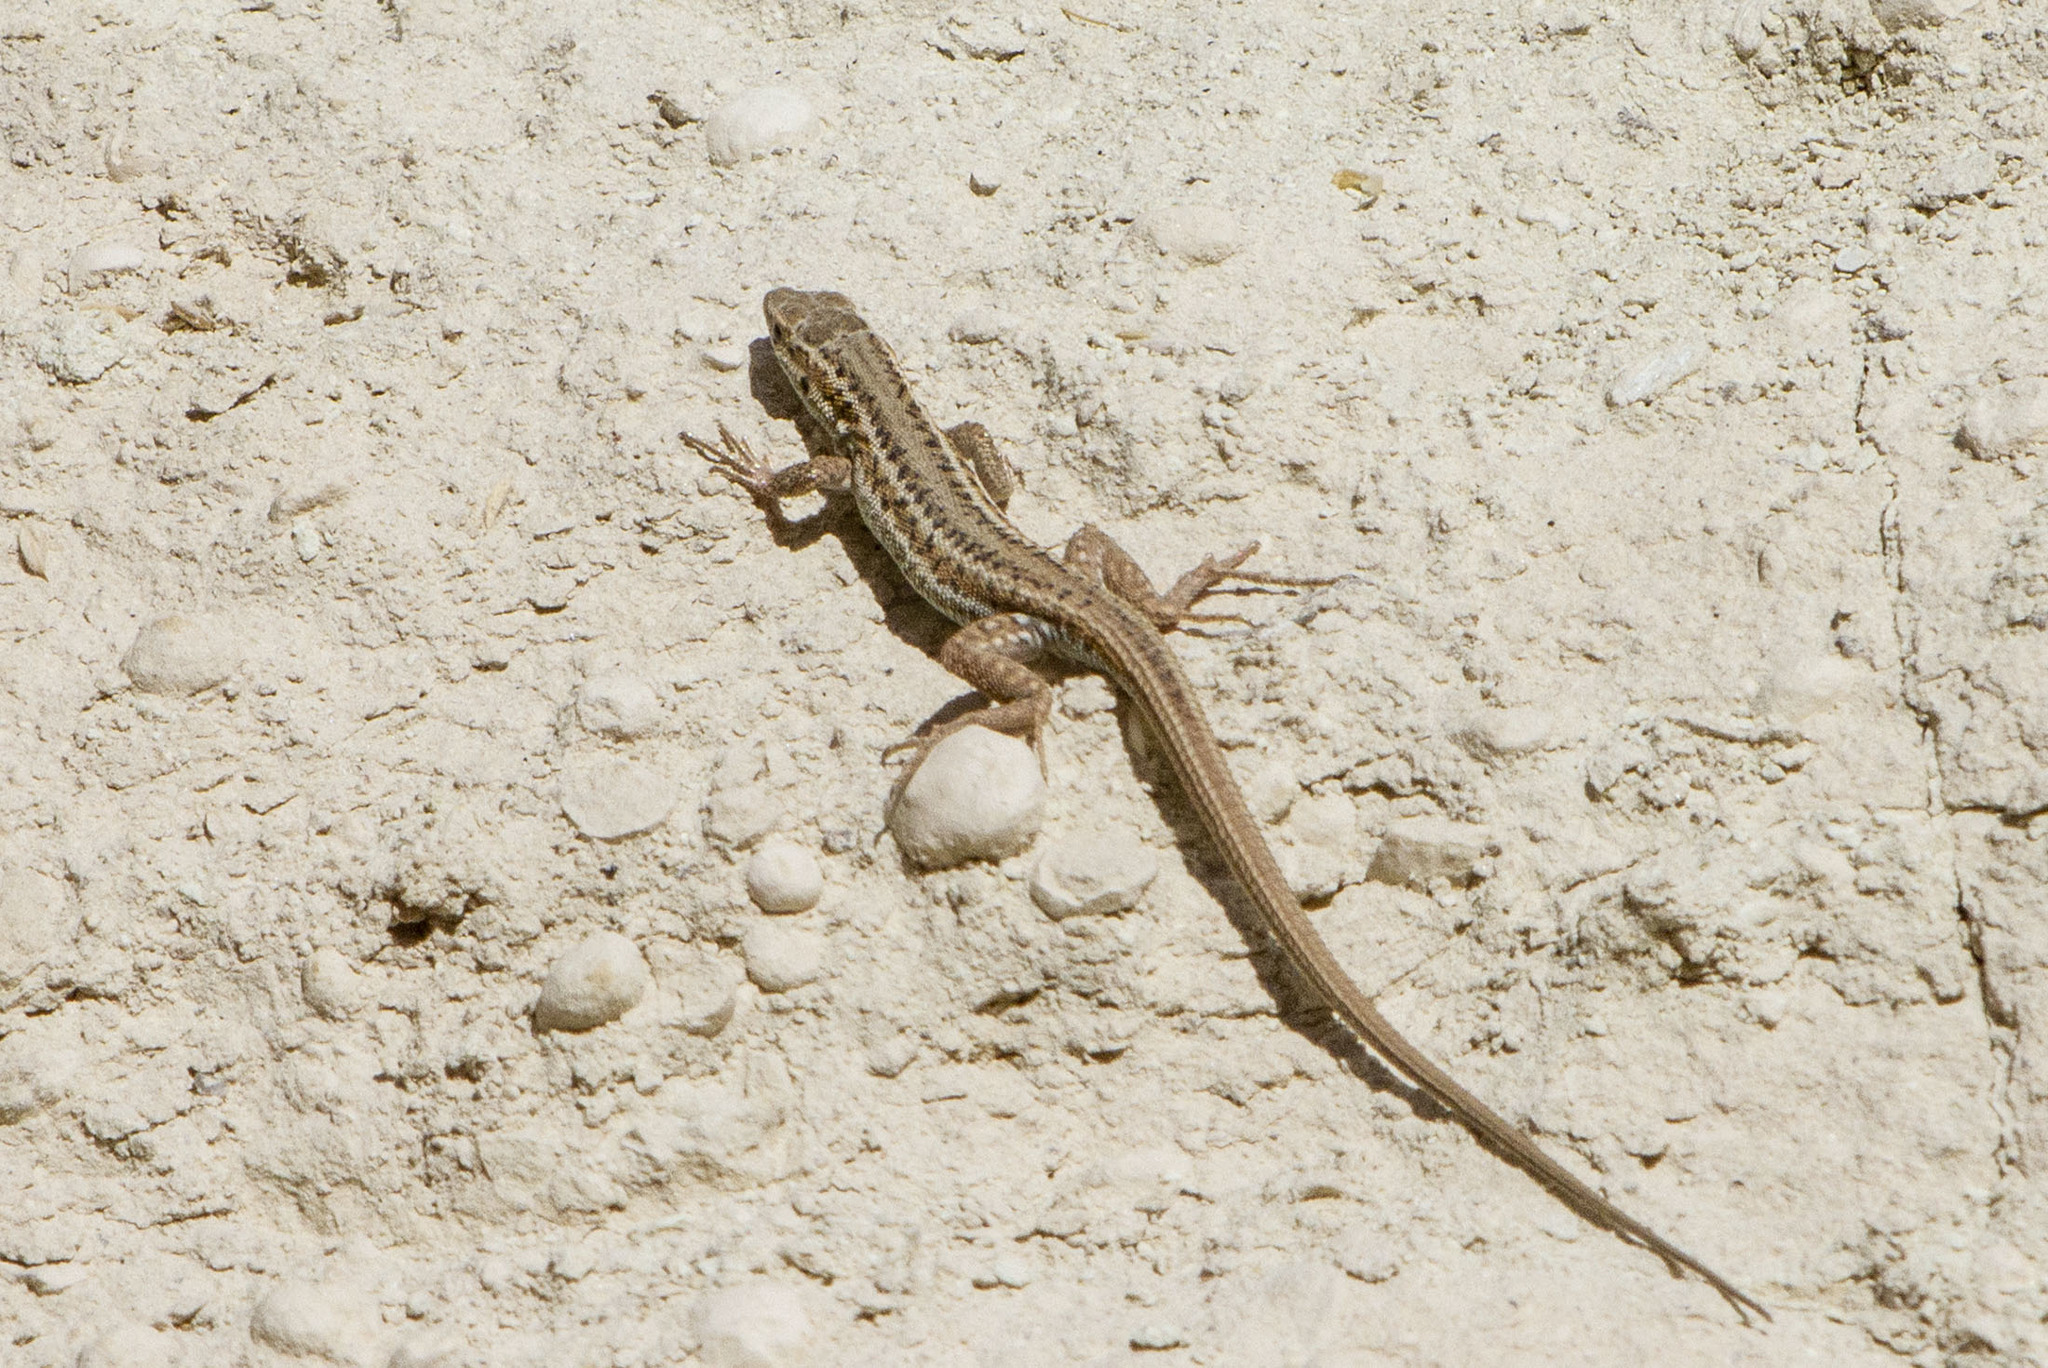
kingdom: Animalia
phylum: Chordata
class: Squamata
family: Lacertidae
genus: Ophisops
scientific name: Ophisops elegans
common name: Snake-eyed lizard
